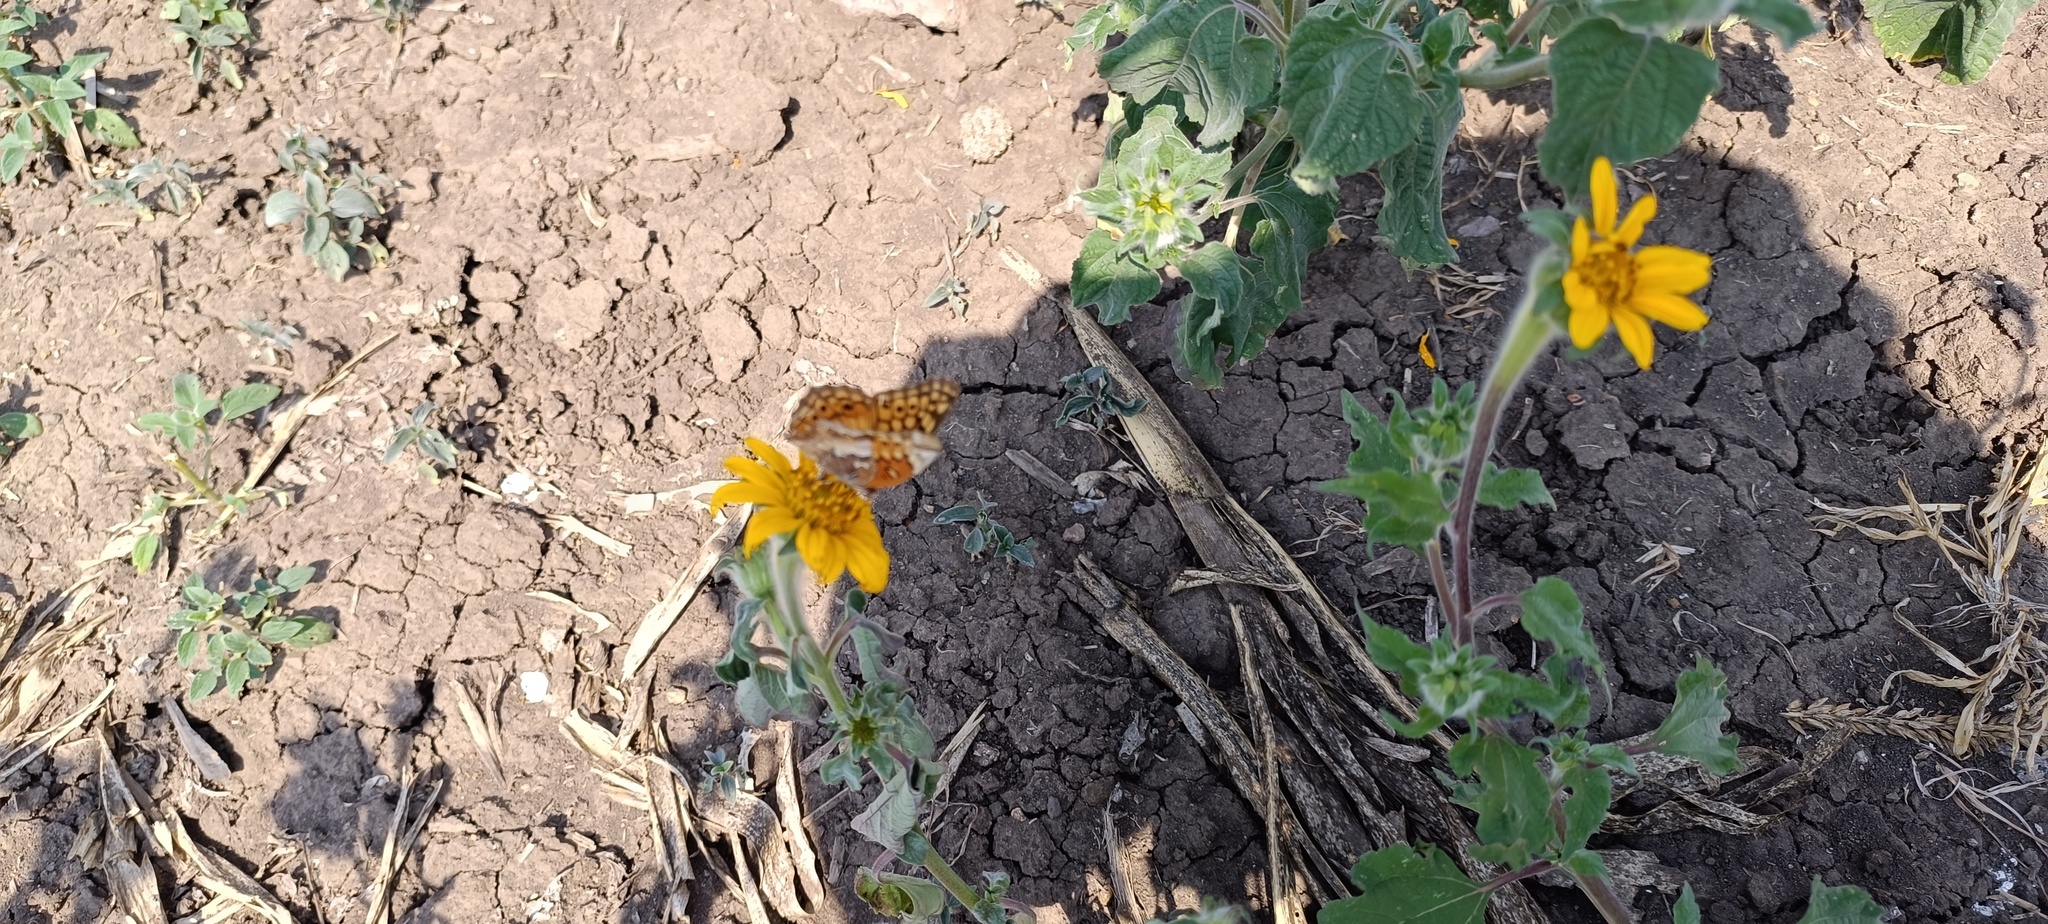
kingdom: Animalia
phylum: Arthropoda
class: Insecta
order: Lepidoptera
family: Nymphalidae
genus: Euptoieta
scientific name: Euptoieta claudia
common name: Variegated fritillary
